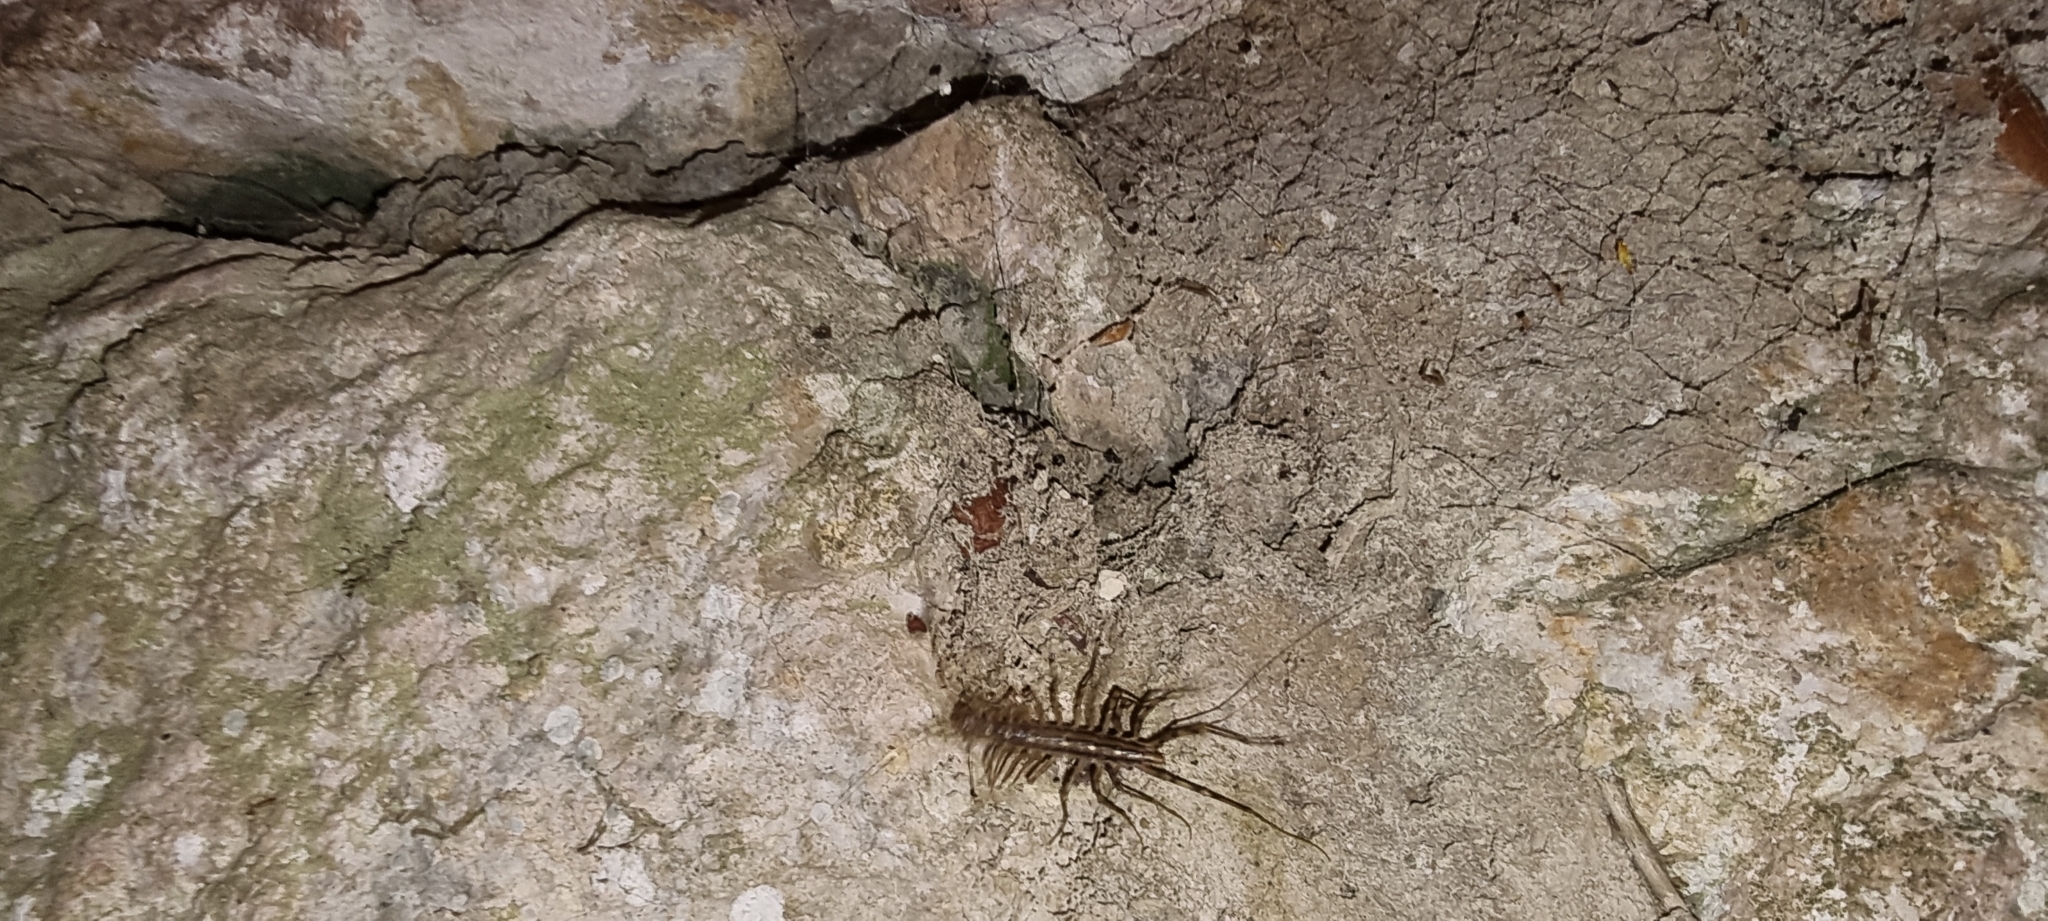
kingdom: Animalia
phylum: Arthropoda
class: Chilopoda
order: Scutigeromorpha
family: Scutigeridae
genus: Scutigera
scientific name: Scutigera coleoptrata
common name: House centipede
